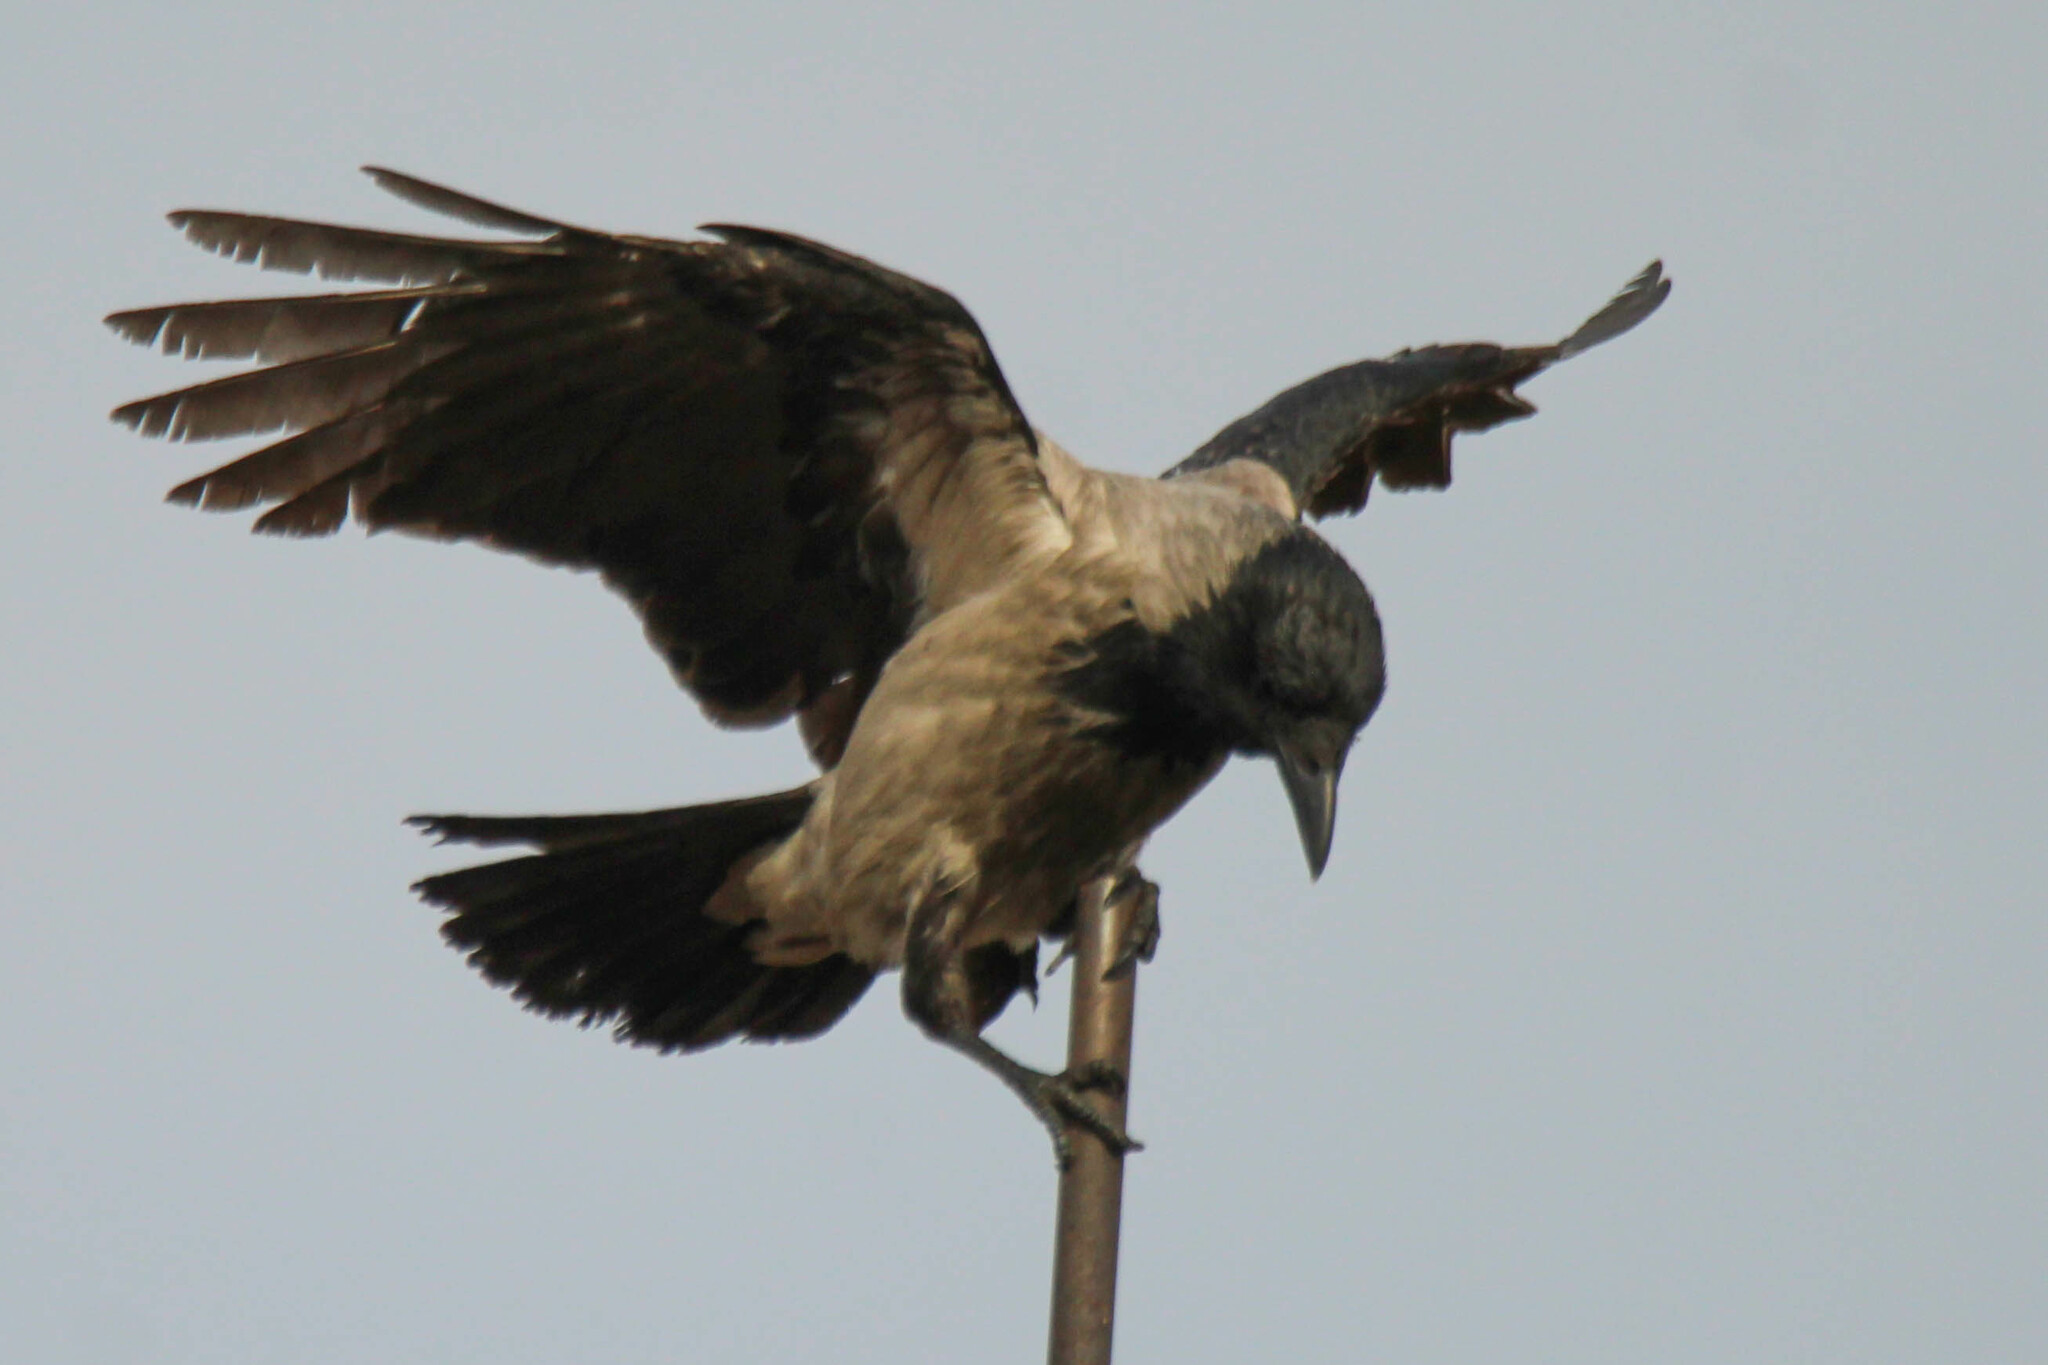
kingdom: Animalia
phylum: Chordata
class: Aves
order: Passeriformes
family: Corvidae
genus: Corvus
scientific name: Corvus cornix
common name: Hooded crow
